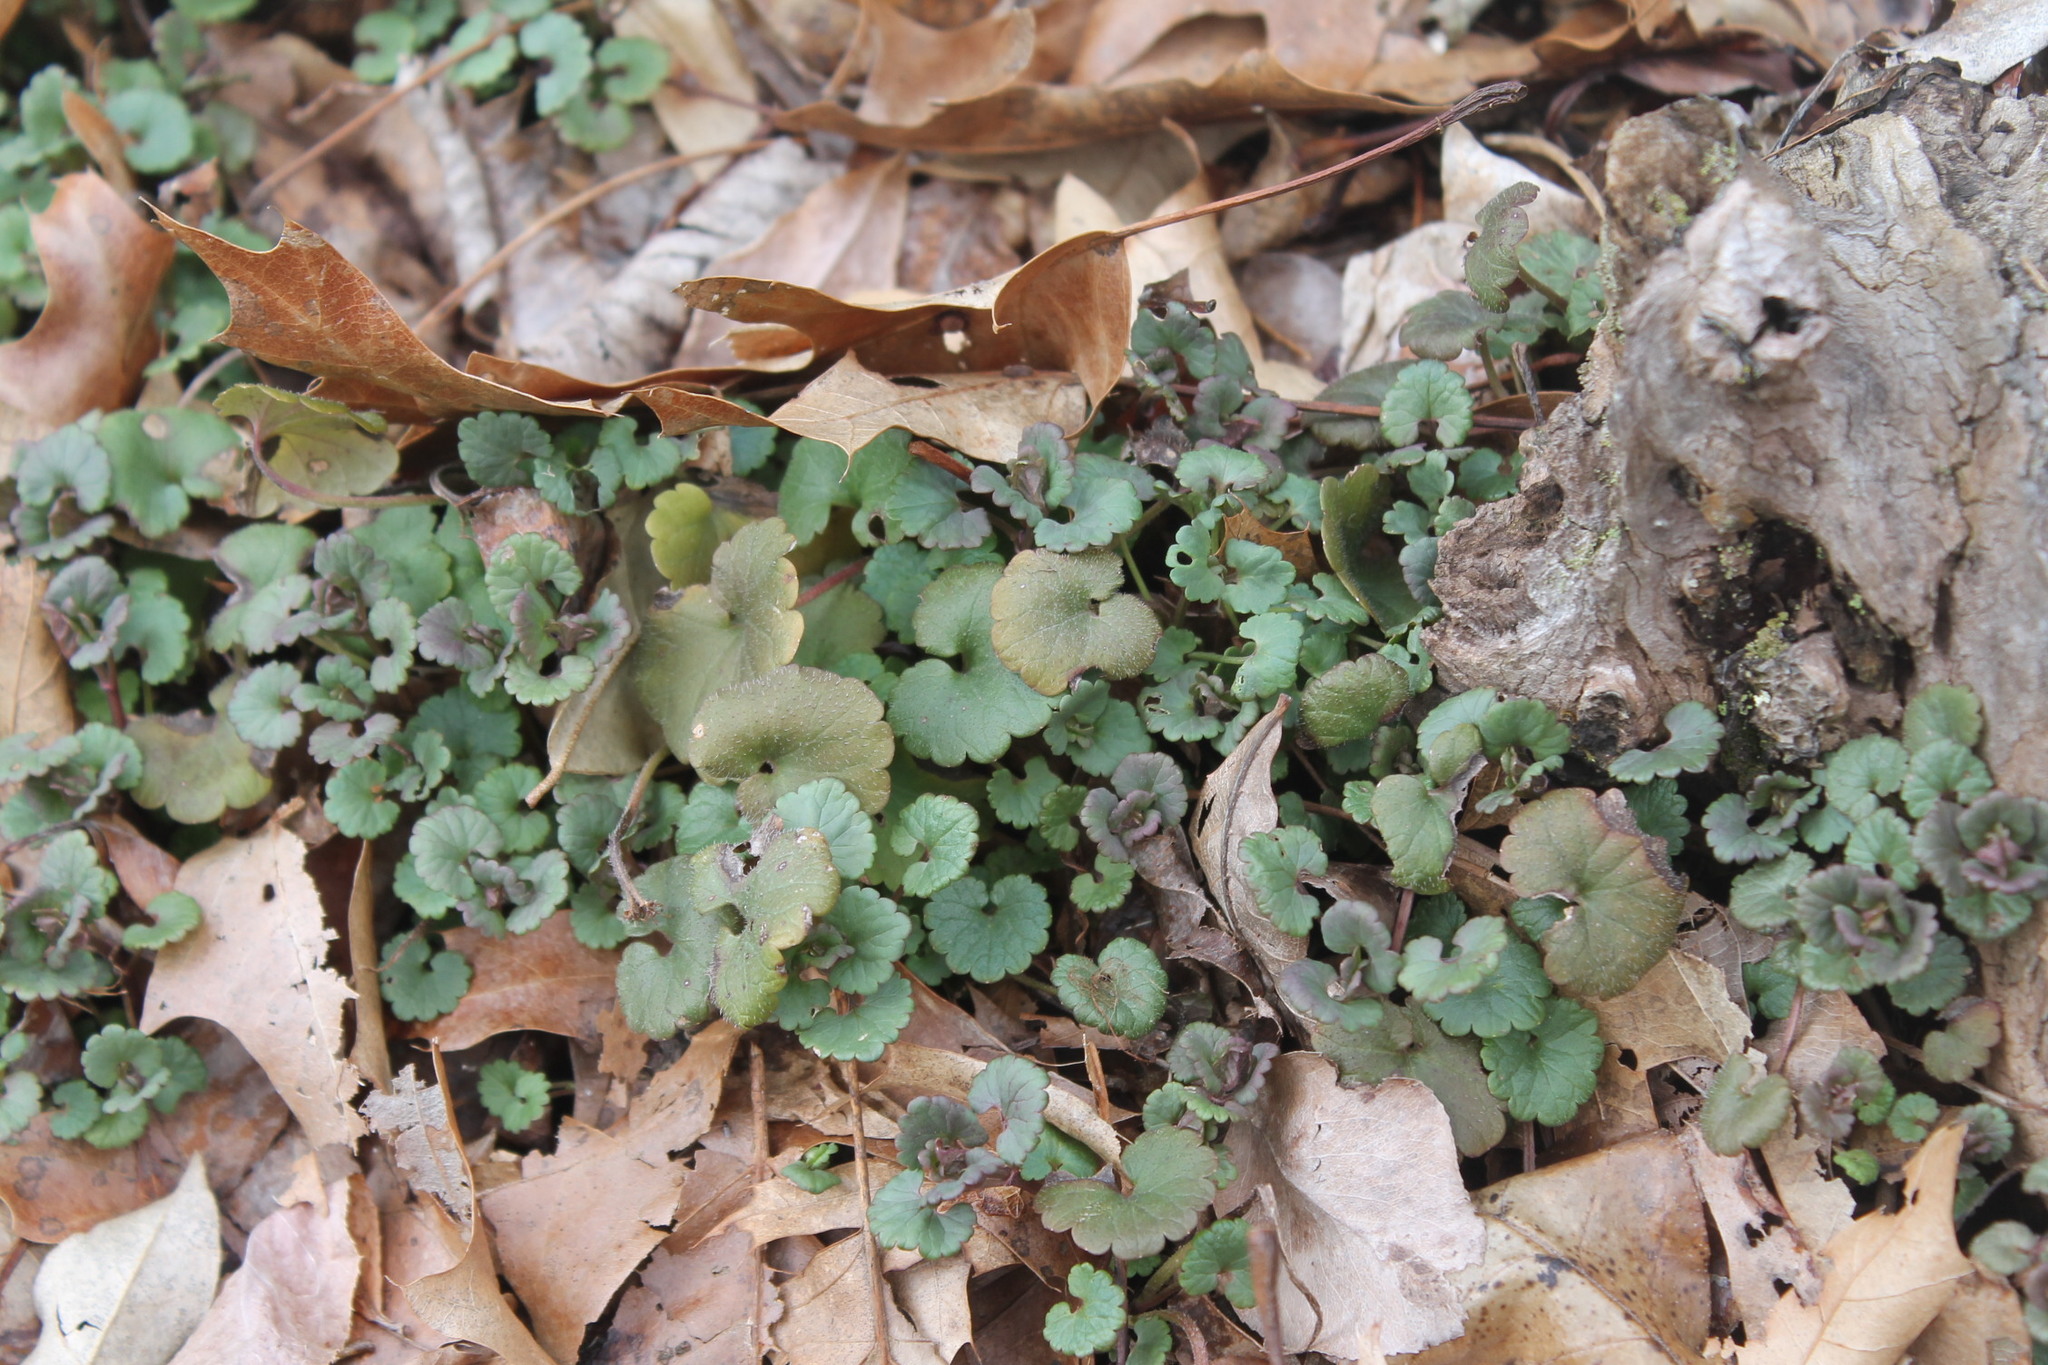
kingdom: Plantae
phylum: Tracheophyta
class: Magnoliopsida
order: Lamiales
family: Lamiaceae
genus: Glechoma
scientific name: Glechoma hederacea
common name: Ground ivy
